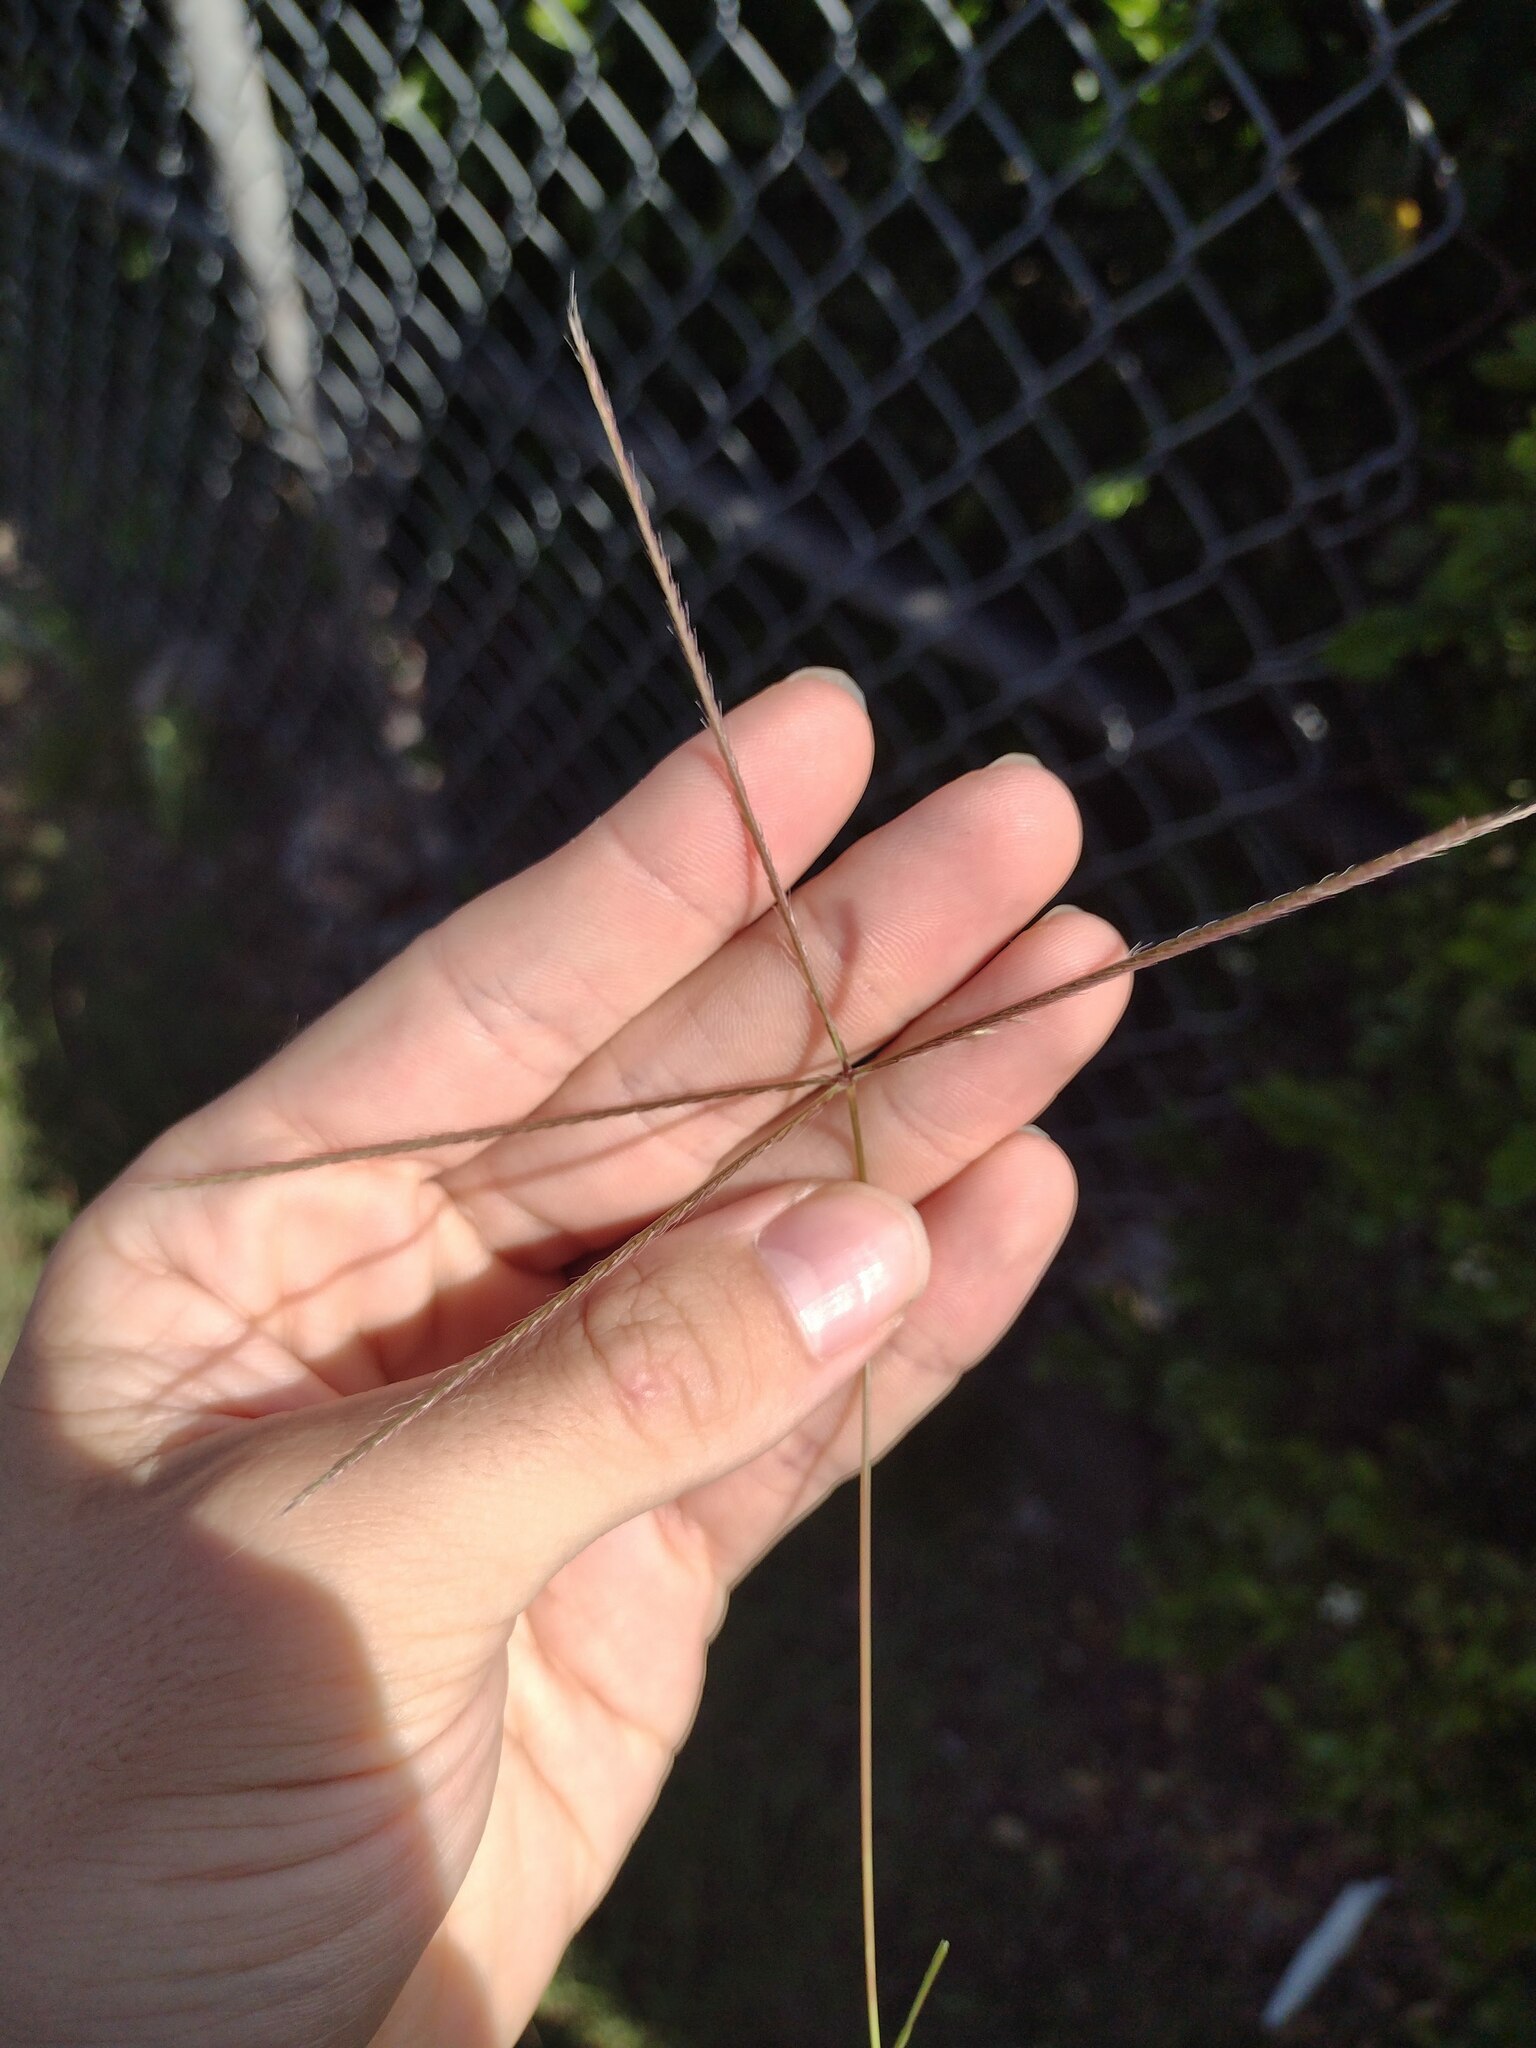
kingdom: Plantae
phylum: Tracheophyta
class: Liliopsida
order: Poales
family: Poaceae
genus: Chloris
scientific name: Chloris divaricata
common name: Spreading windmill grass
